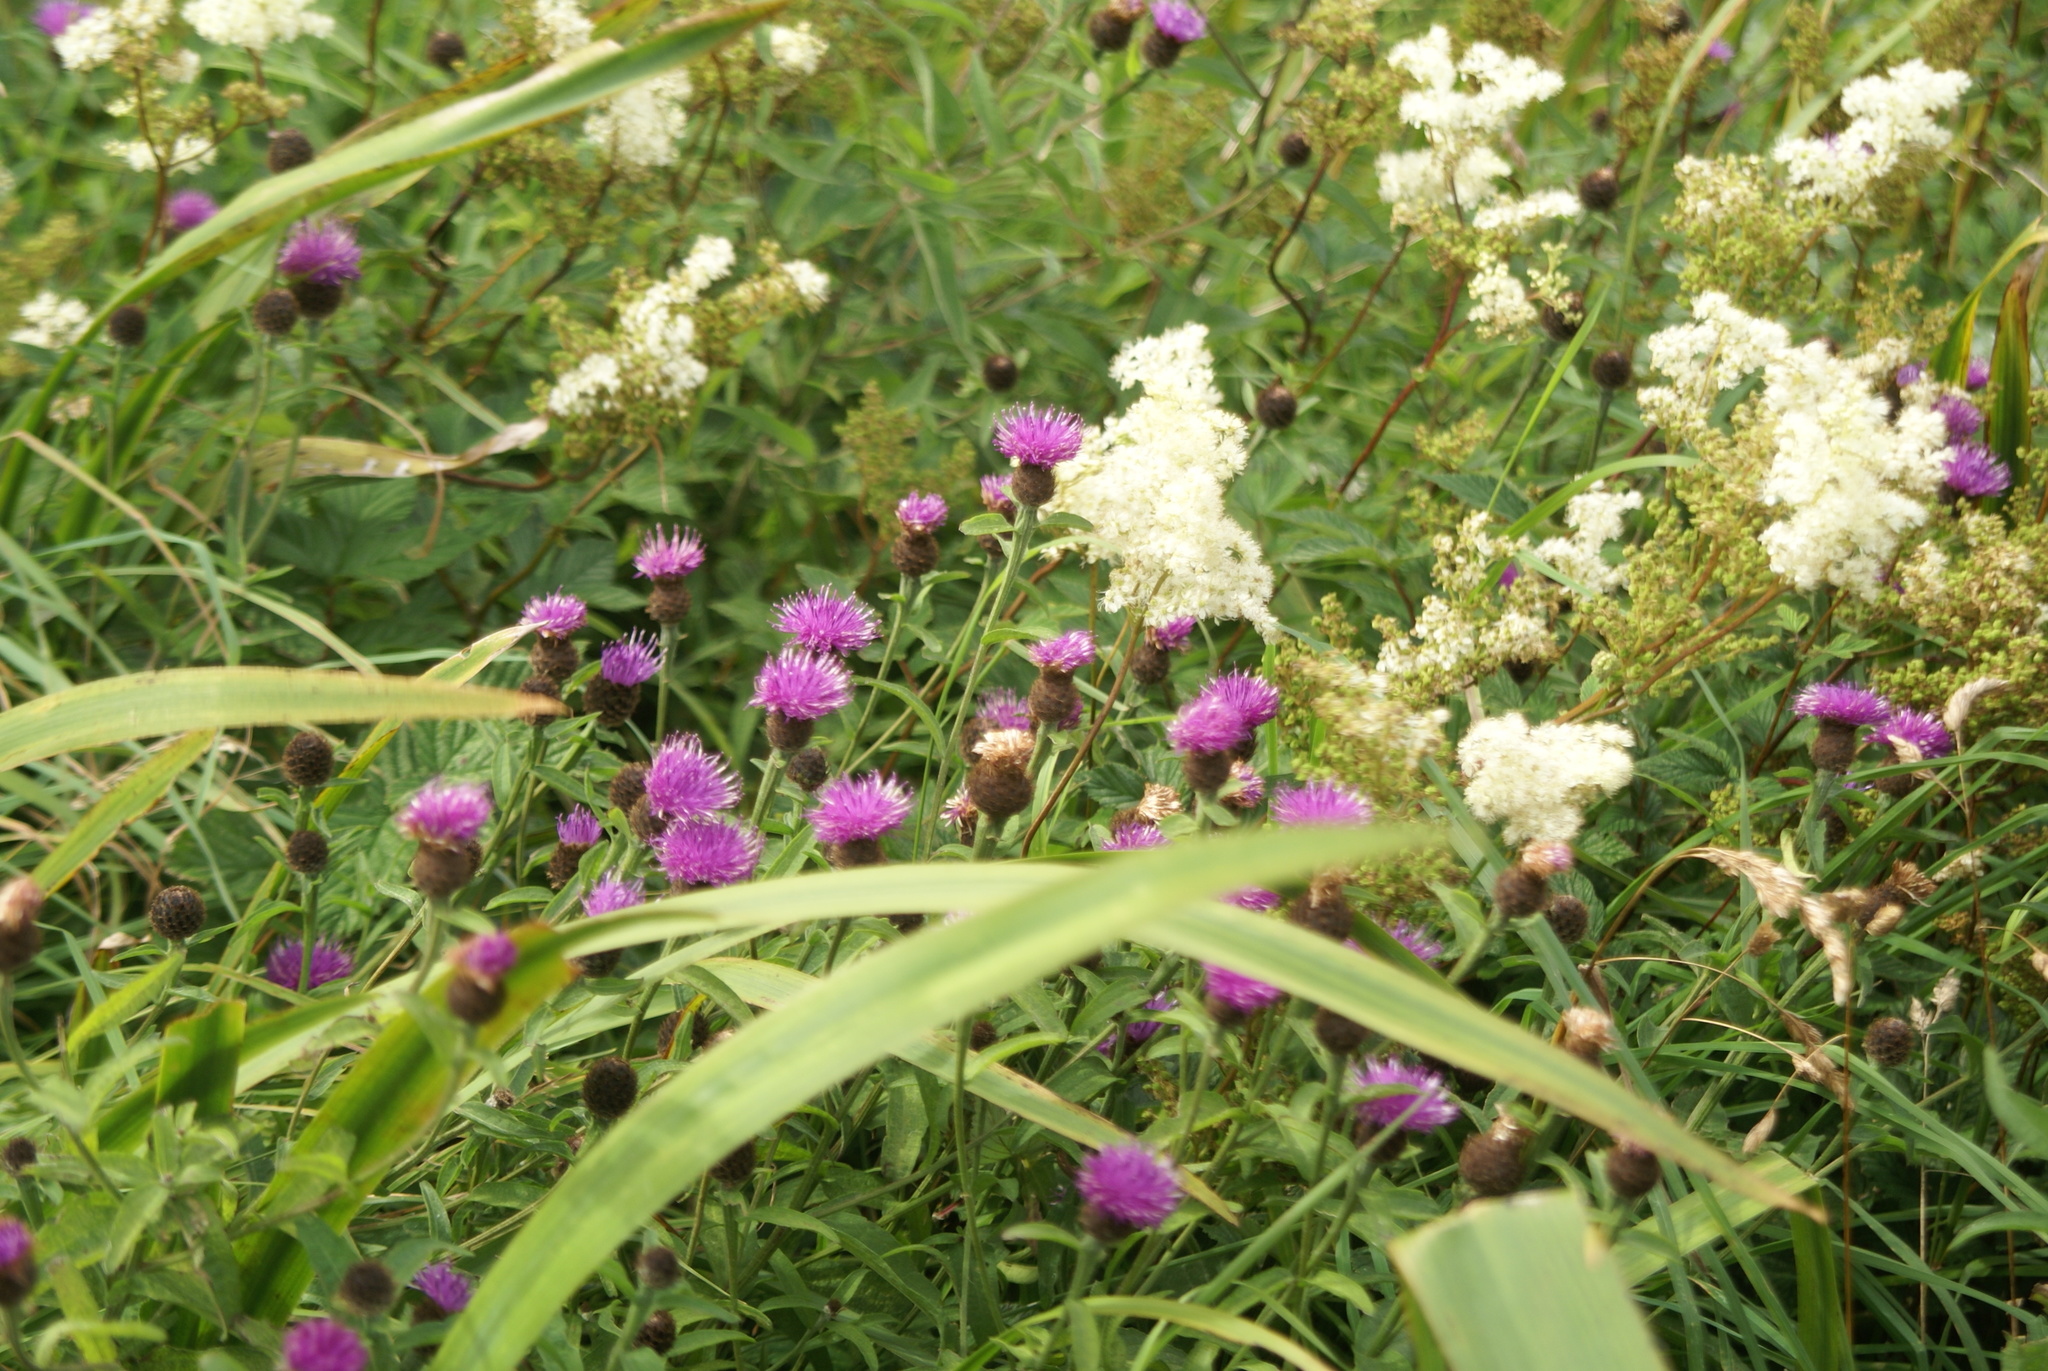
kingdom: Plantae
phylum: Tracheophyta
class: Magnoliopsida
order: Asterales
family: Asteraceae
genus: Centaurea
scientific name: Centaurea nigra
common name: Lesser knapweed
